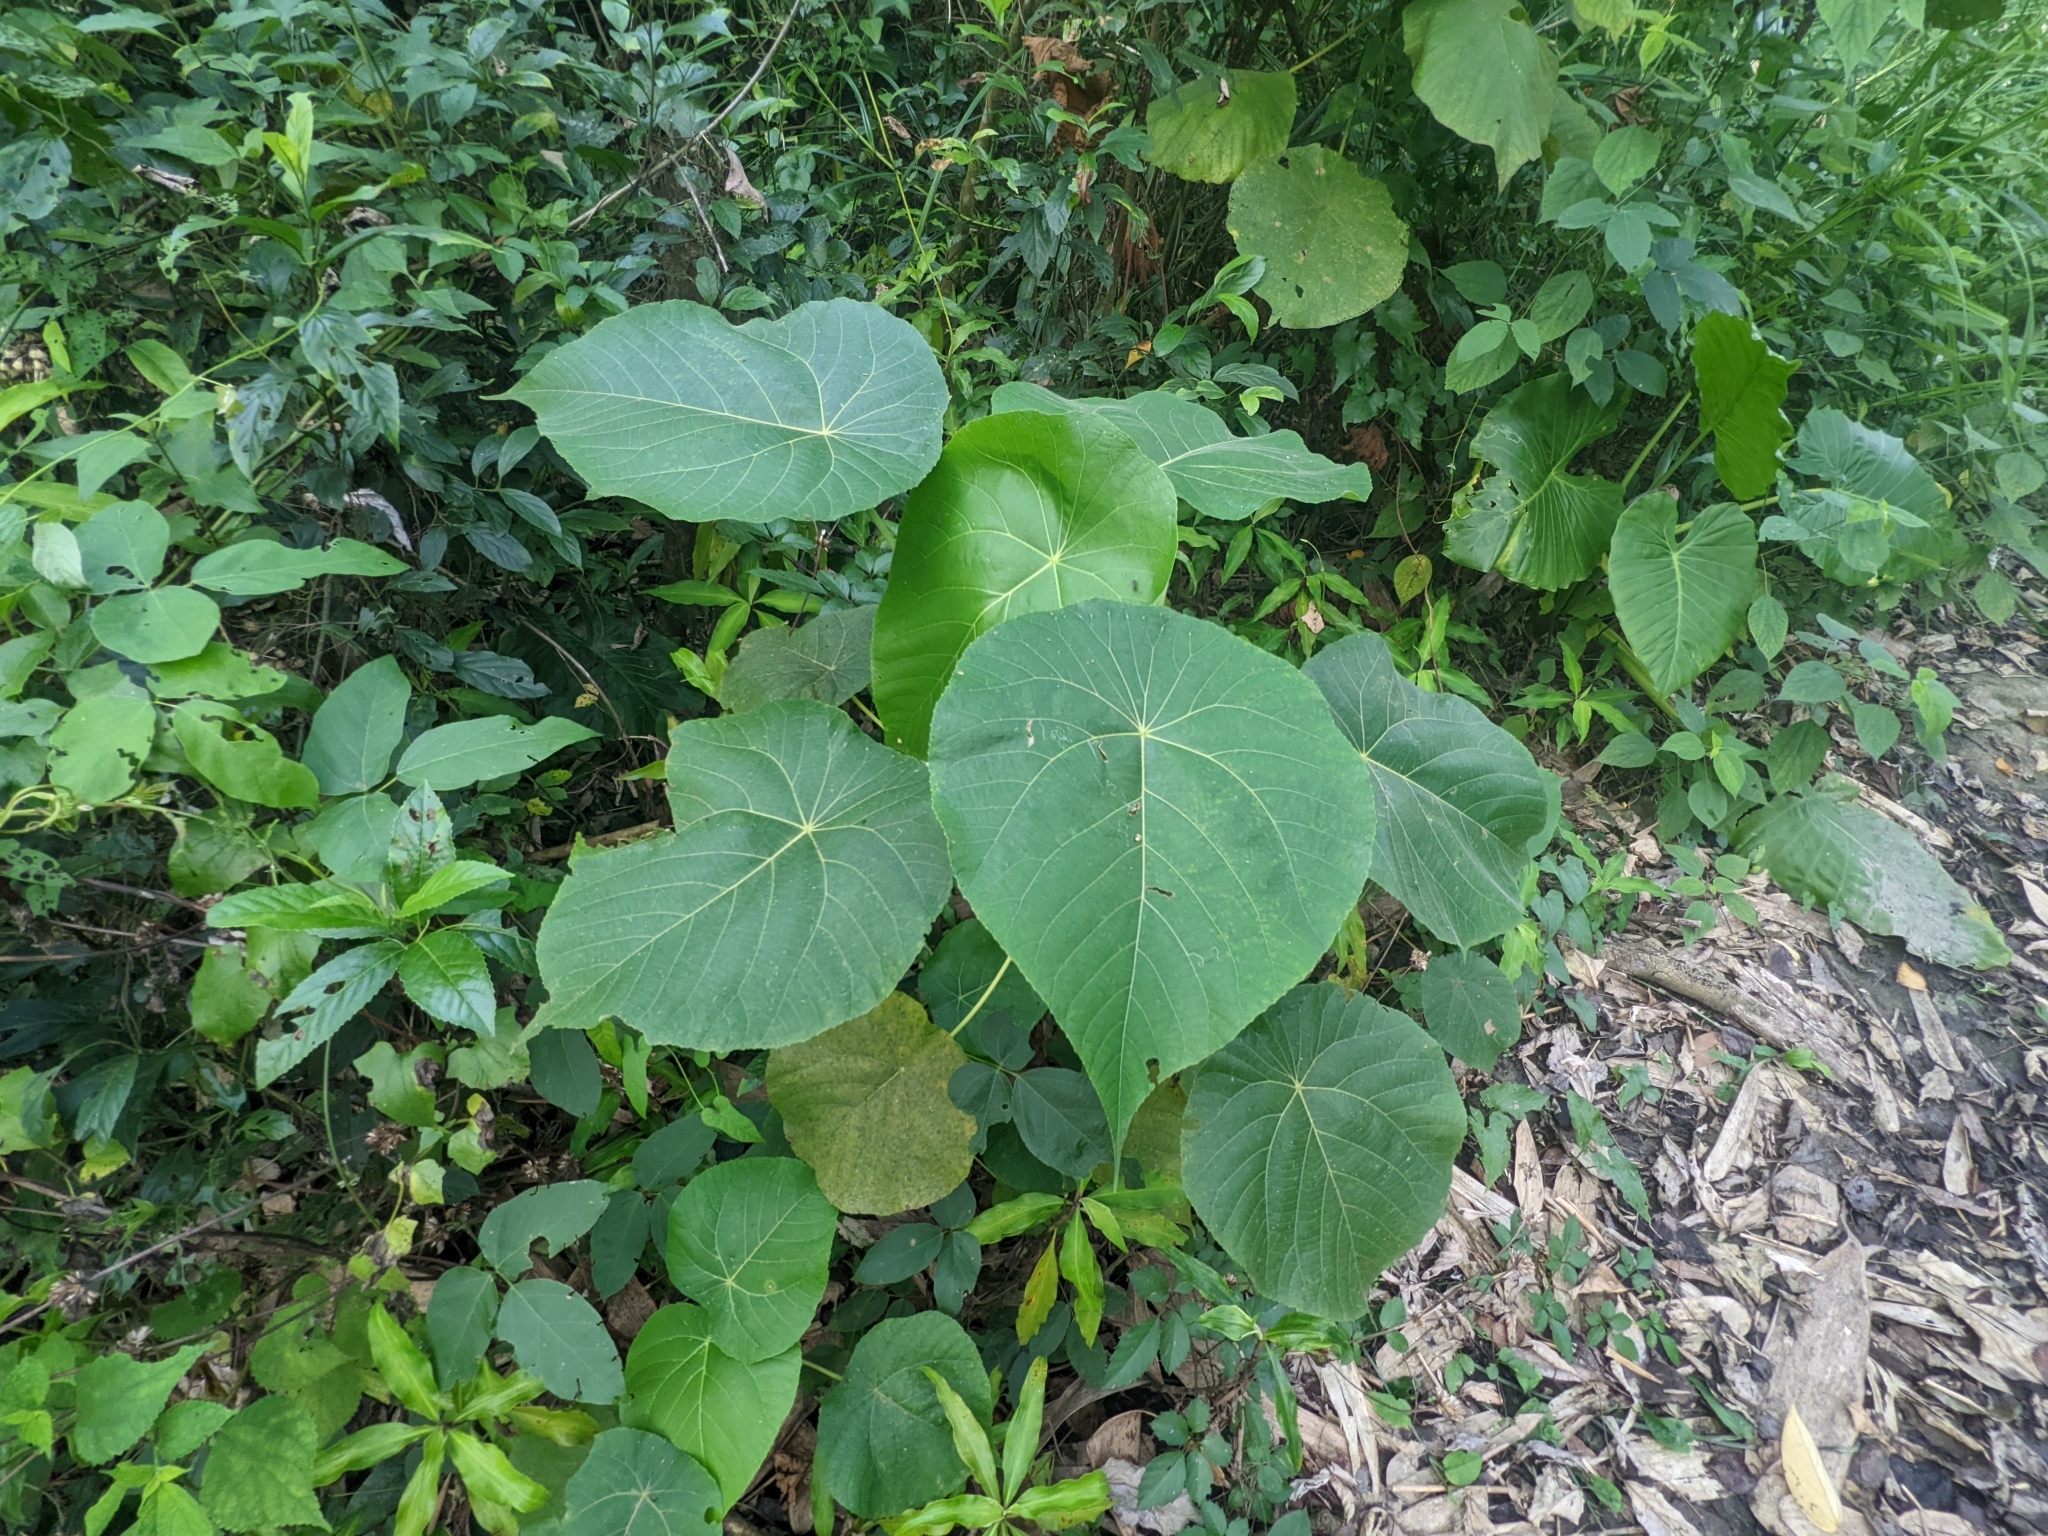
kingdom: Plantae
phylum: Tracheophyta
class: Magnoliopsida
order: Malpighiales
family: Euphorbiaceae
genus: Macaranga
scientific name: Macaranga tanarius
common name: Parasol leaf tree
